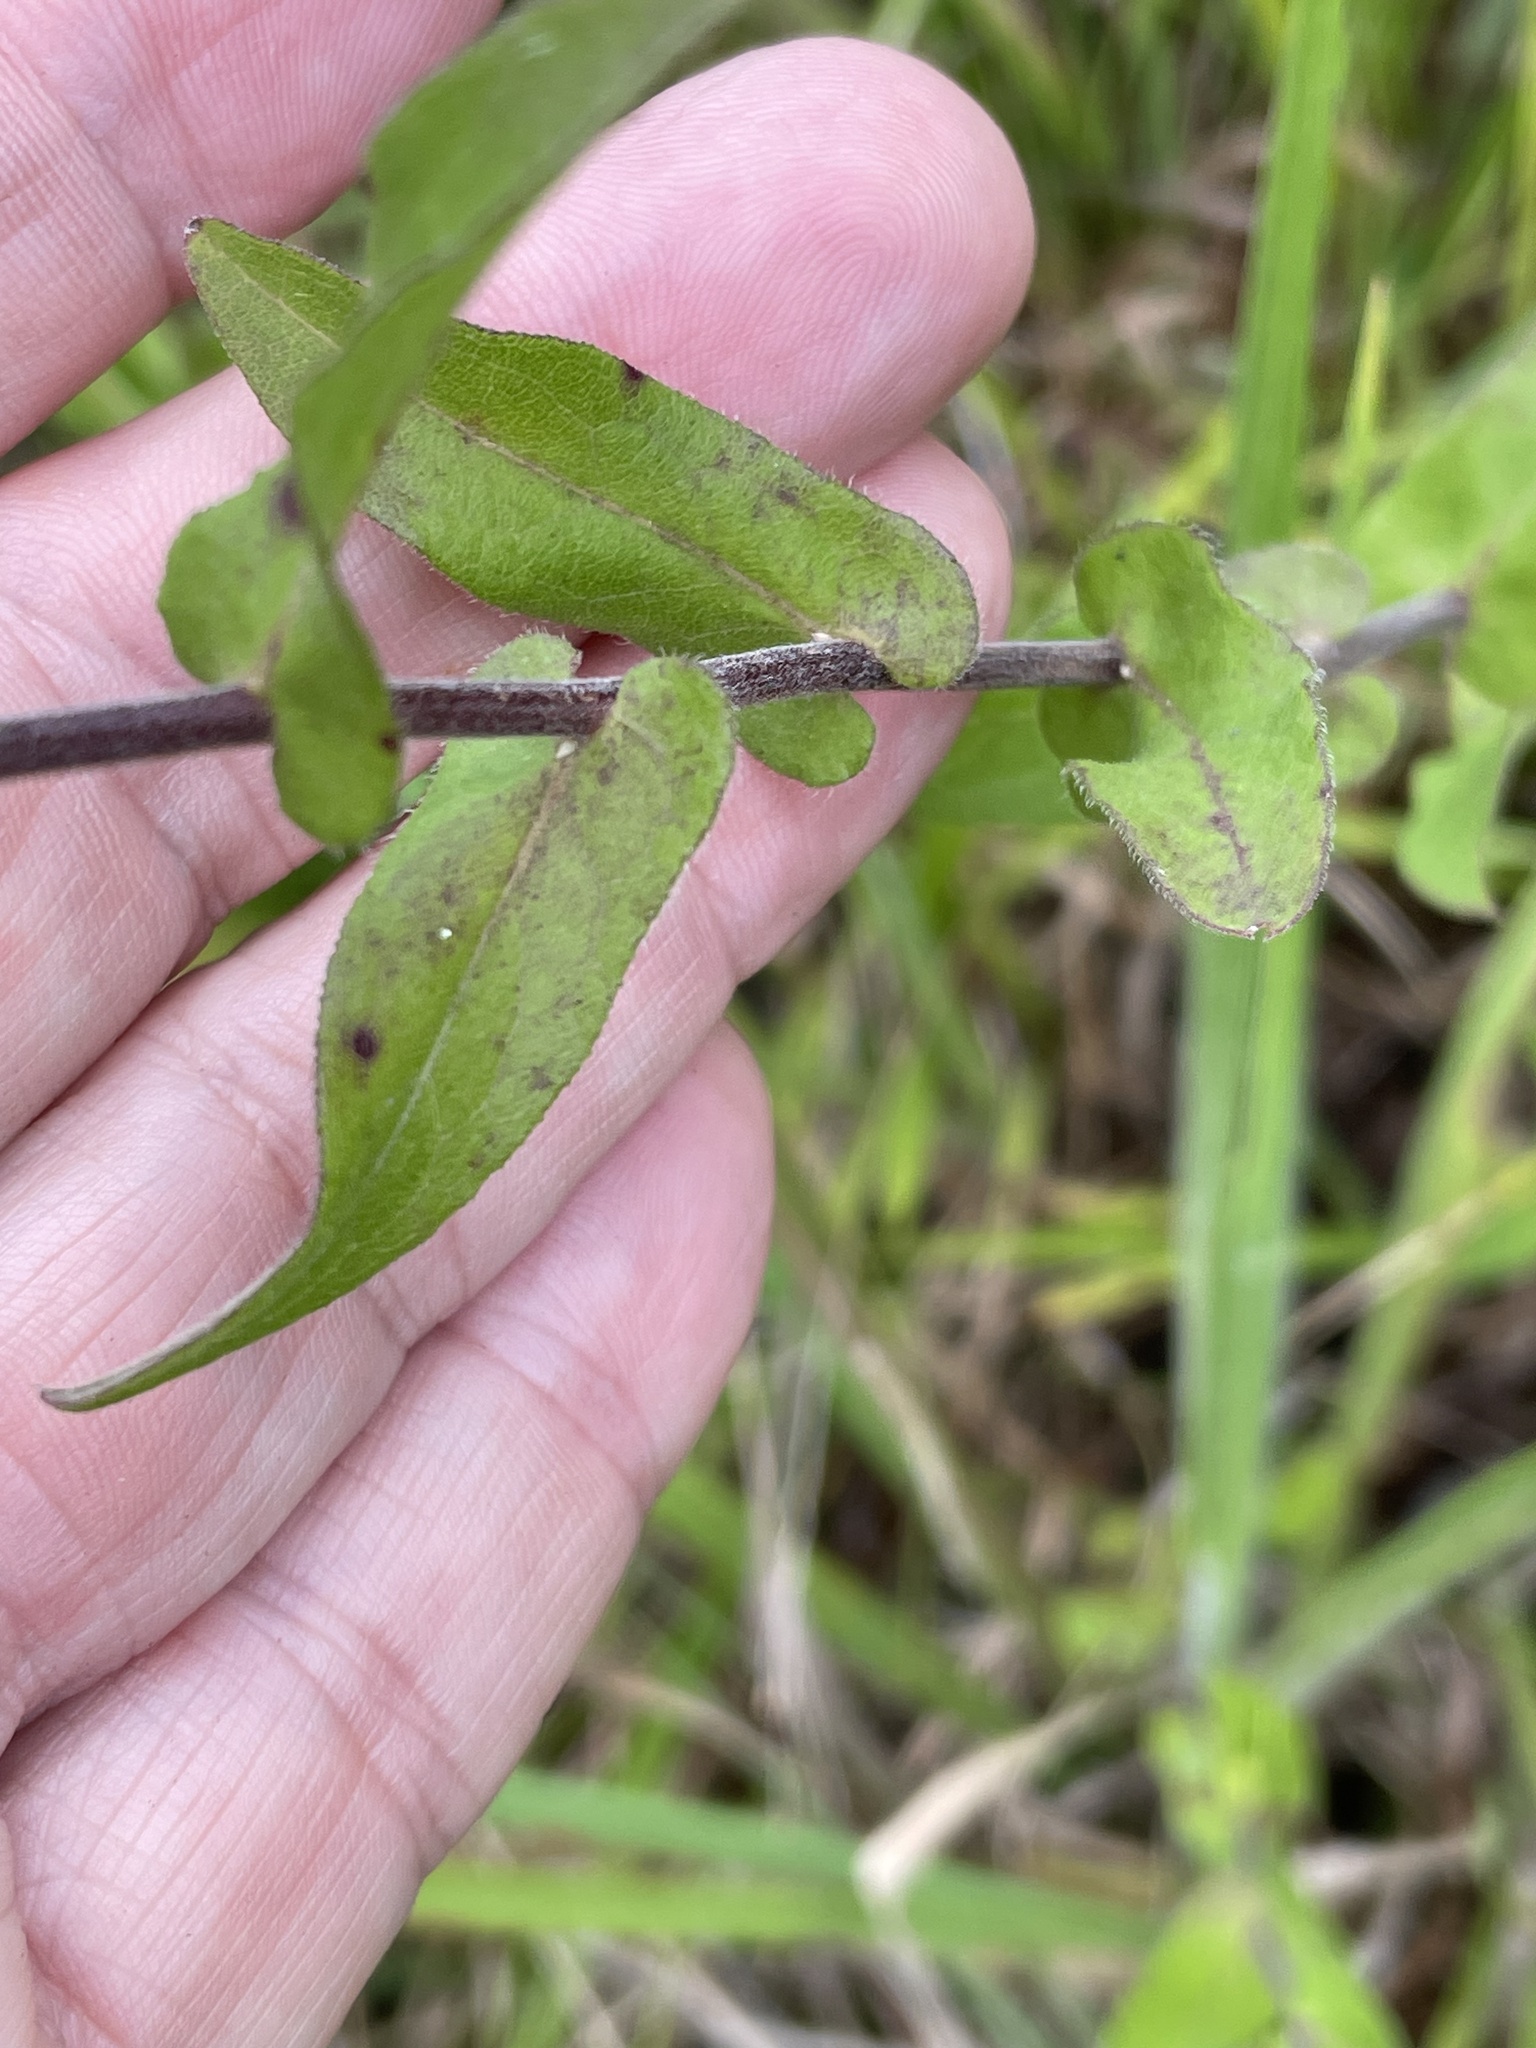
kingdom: Plantae
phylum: Tracheophyta
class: Magnoliopsida
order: Asterales
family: Asteraceae
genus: Symphyotrichum
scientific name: Symphyotrichum patens
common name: Late purple aster
